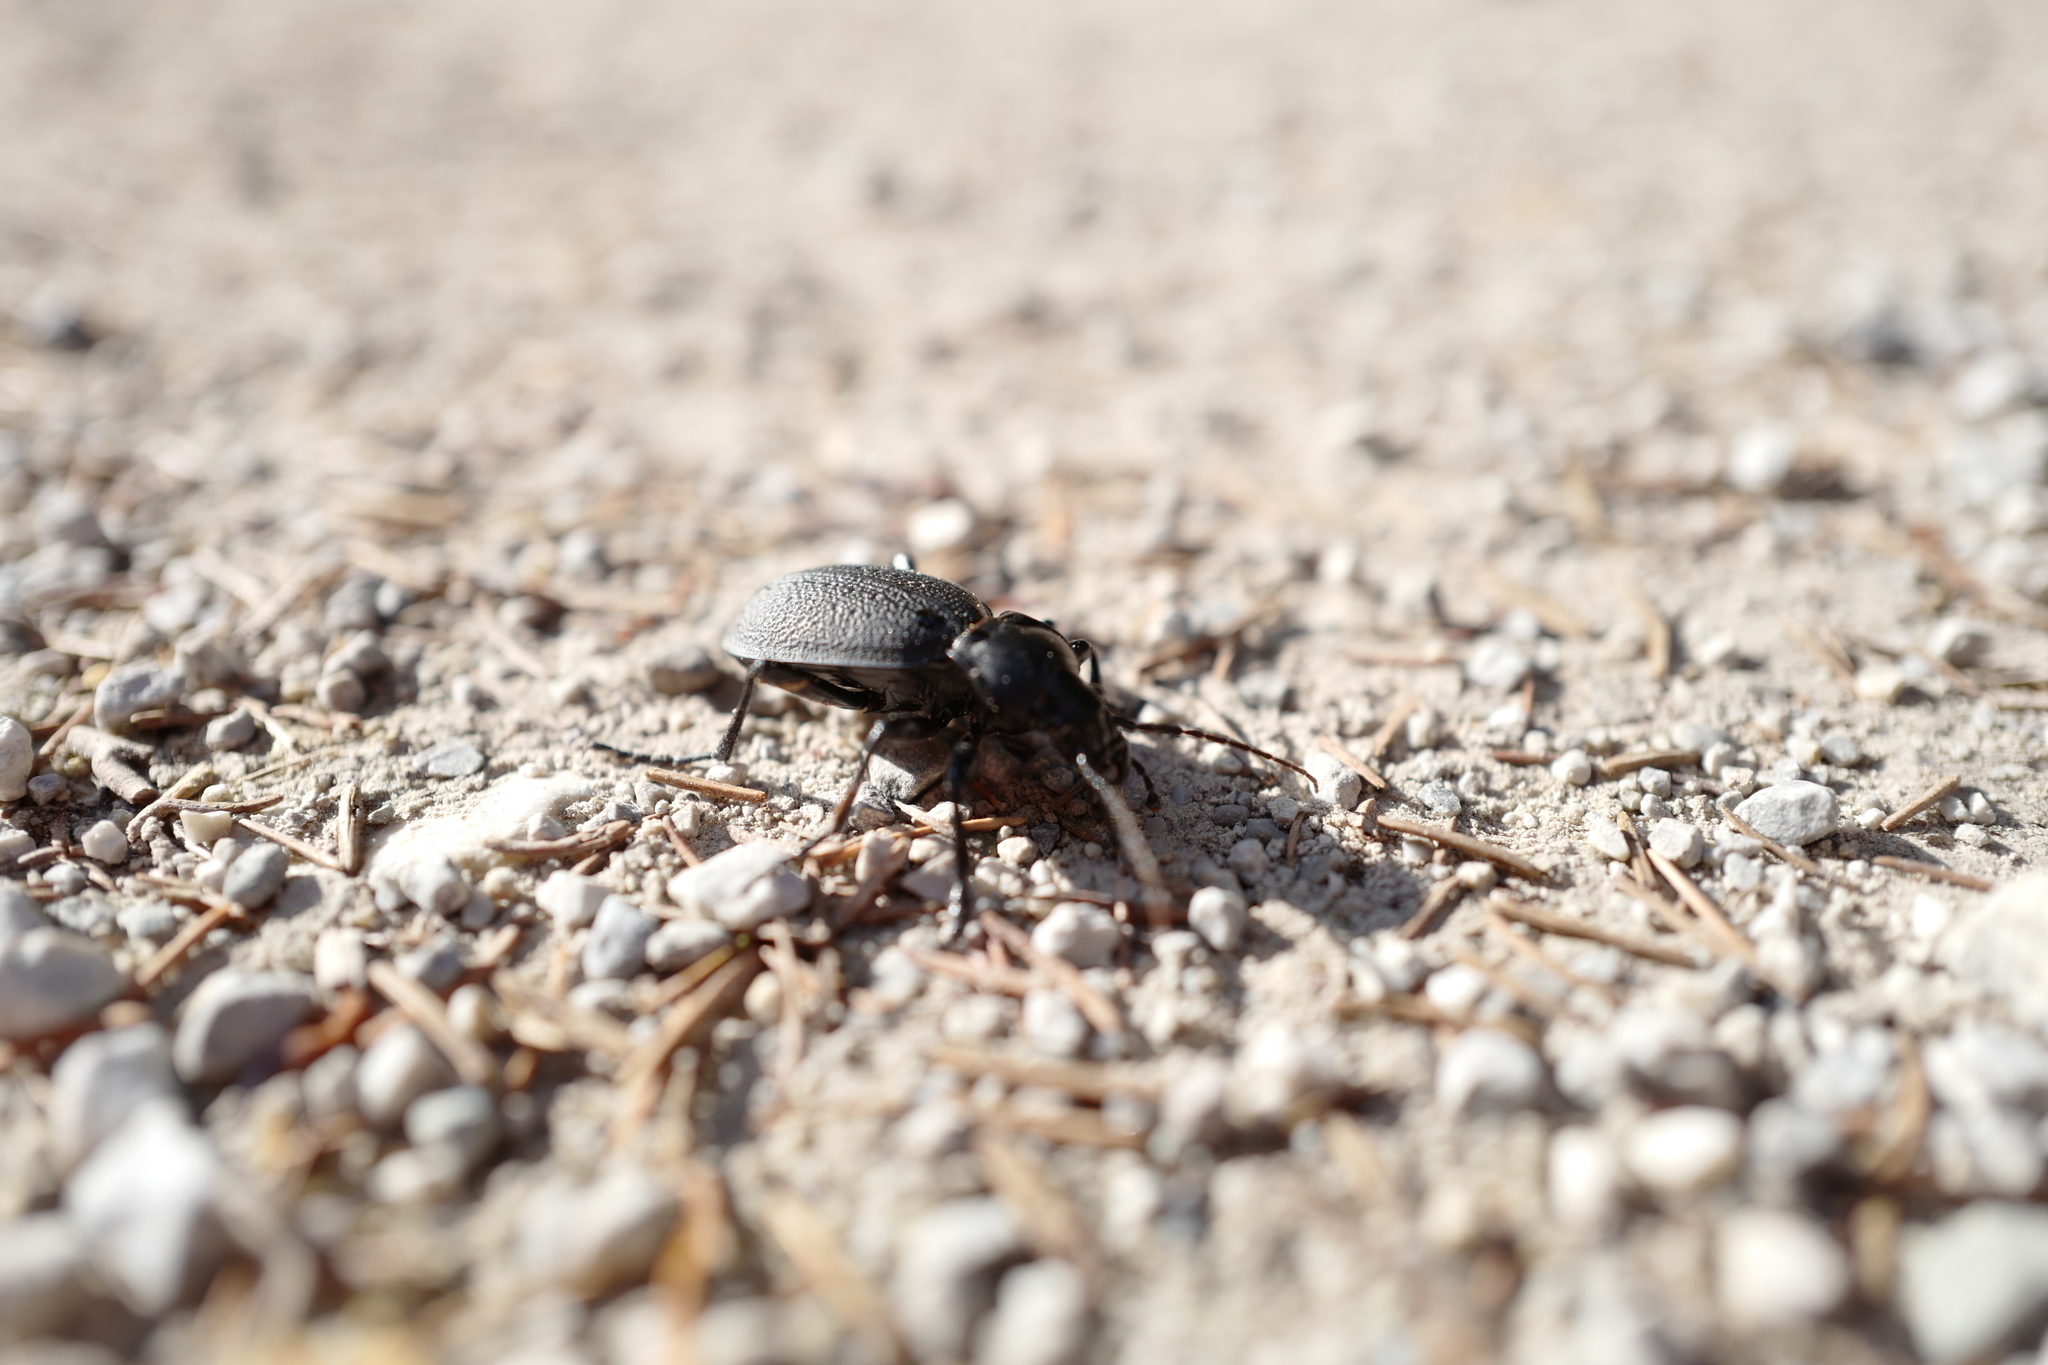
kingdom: Animalia
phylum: Arthropoda
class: Insecta
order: Coleoptera
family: Carabidae
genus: Carabus
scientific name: Carabus coriaceus
